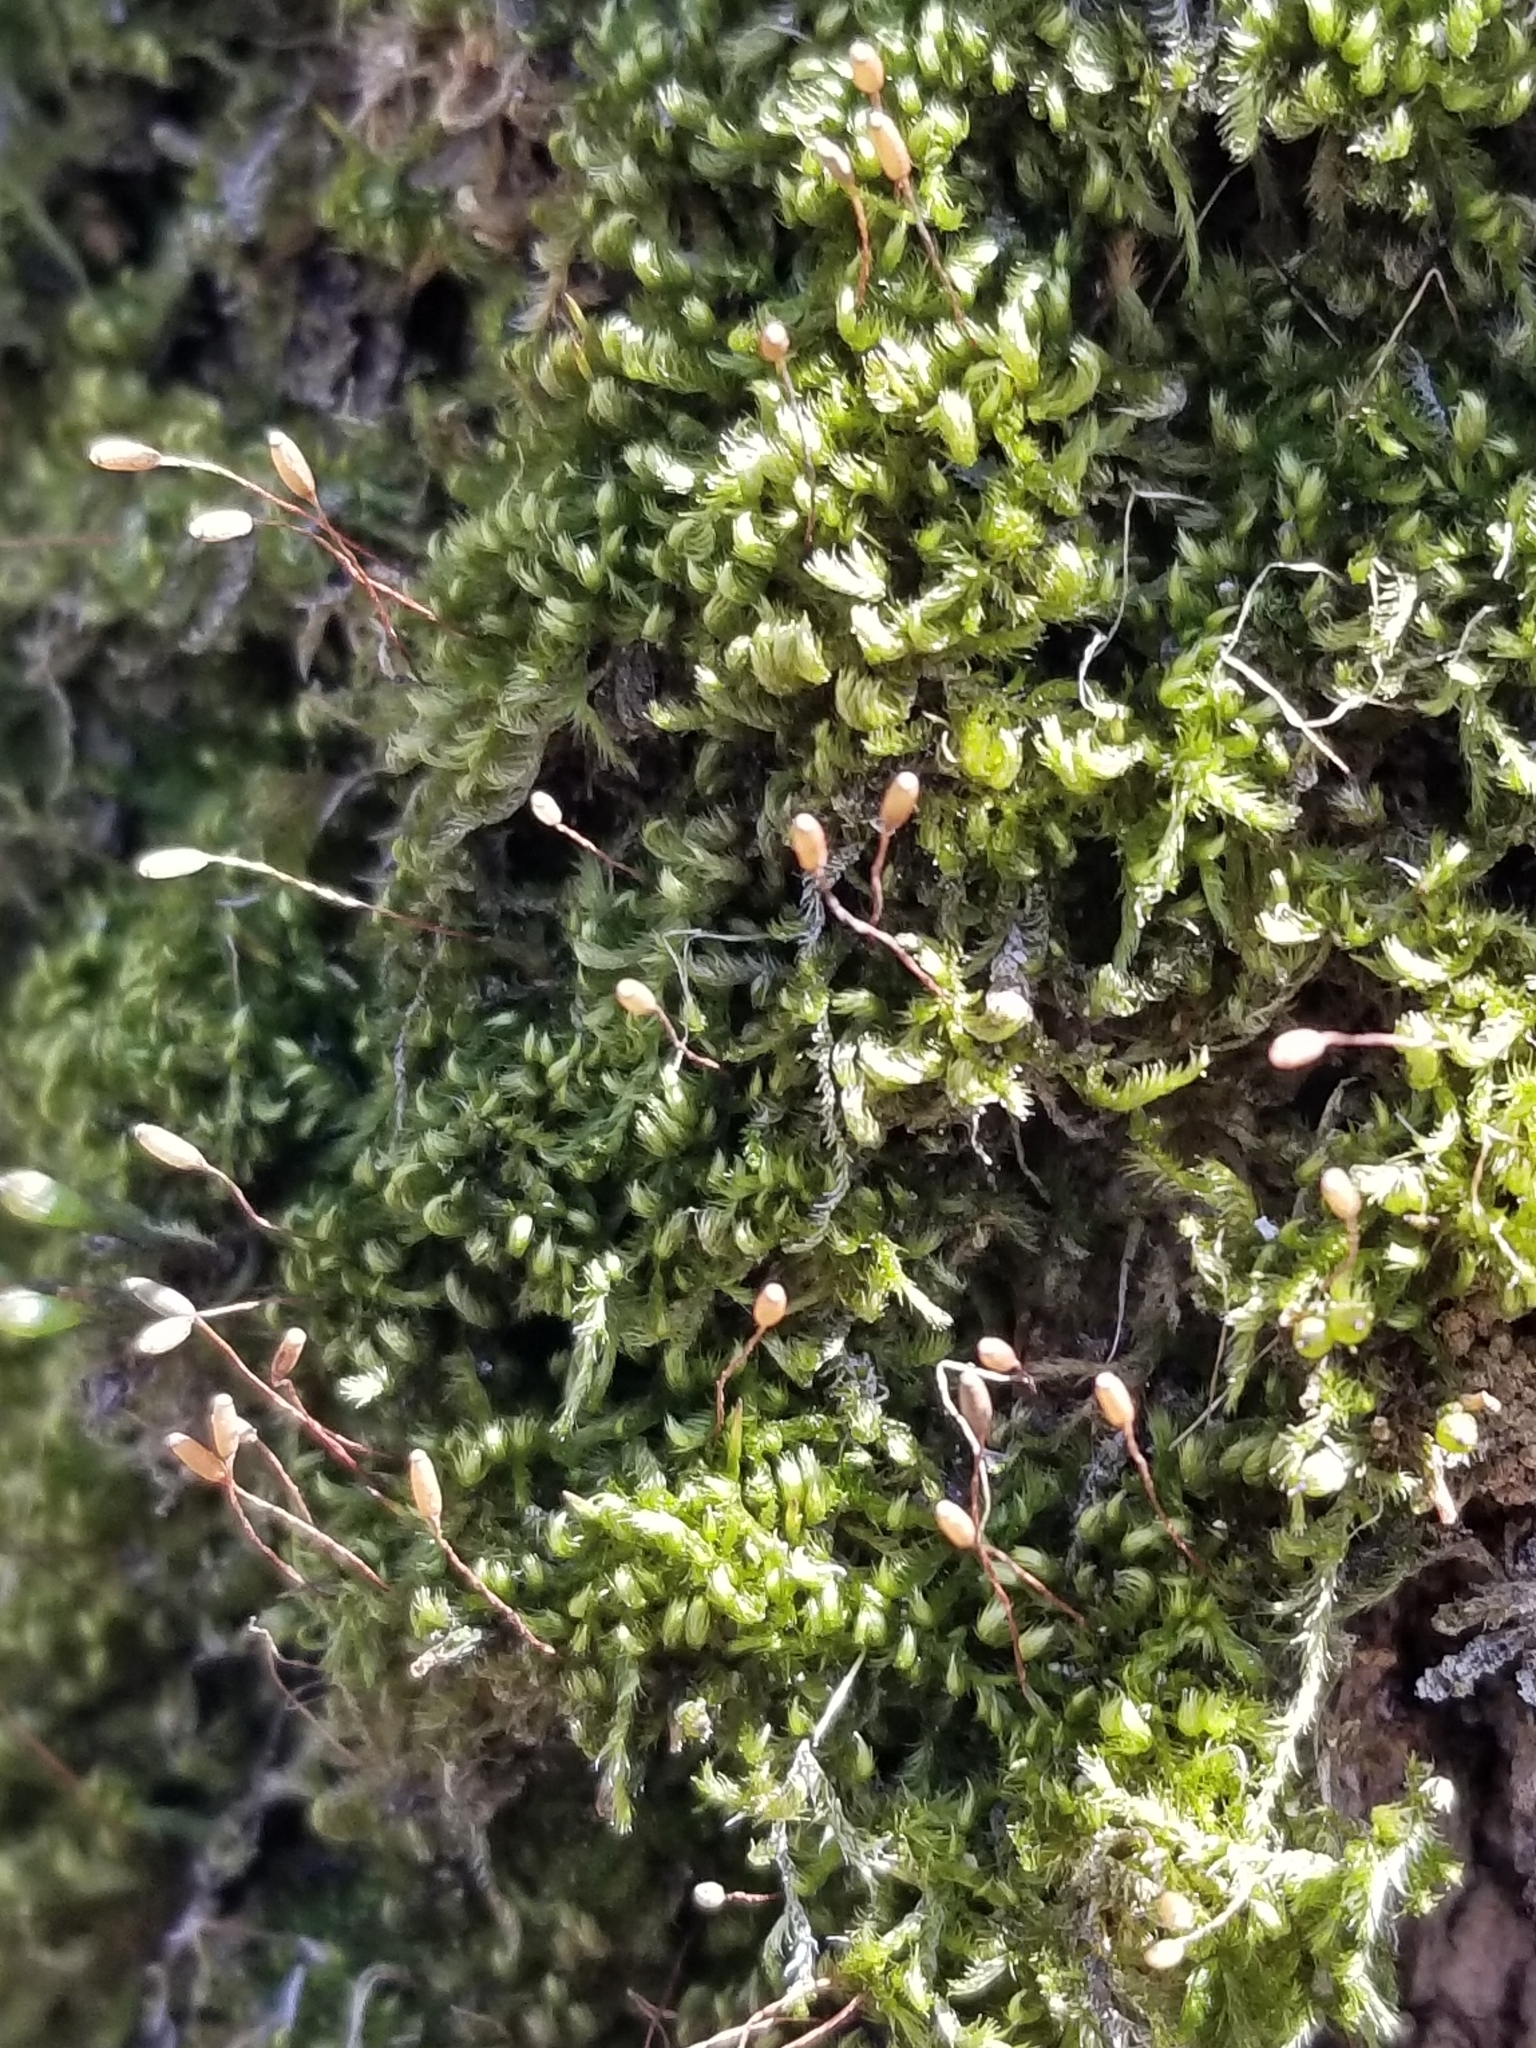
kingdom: Plantae
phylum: Bryophyta
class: Bryopsida
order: Hypnales
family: Pylaisiaceae
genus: Pylaisia
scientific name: Pylaisia polyantha
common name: Many-flowered leskea
